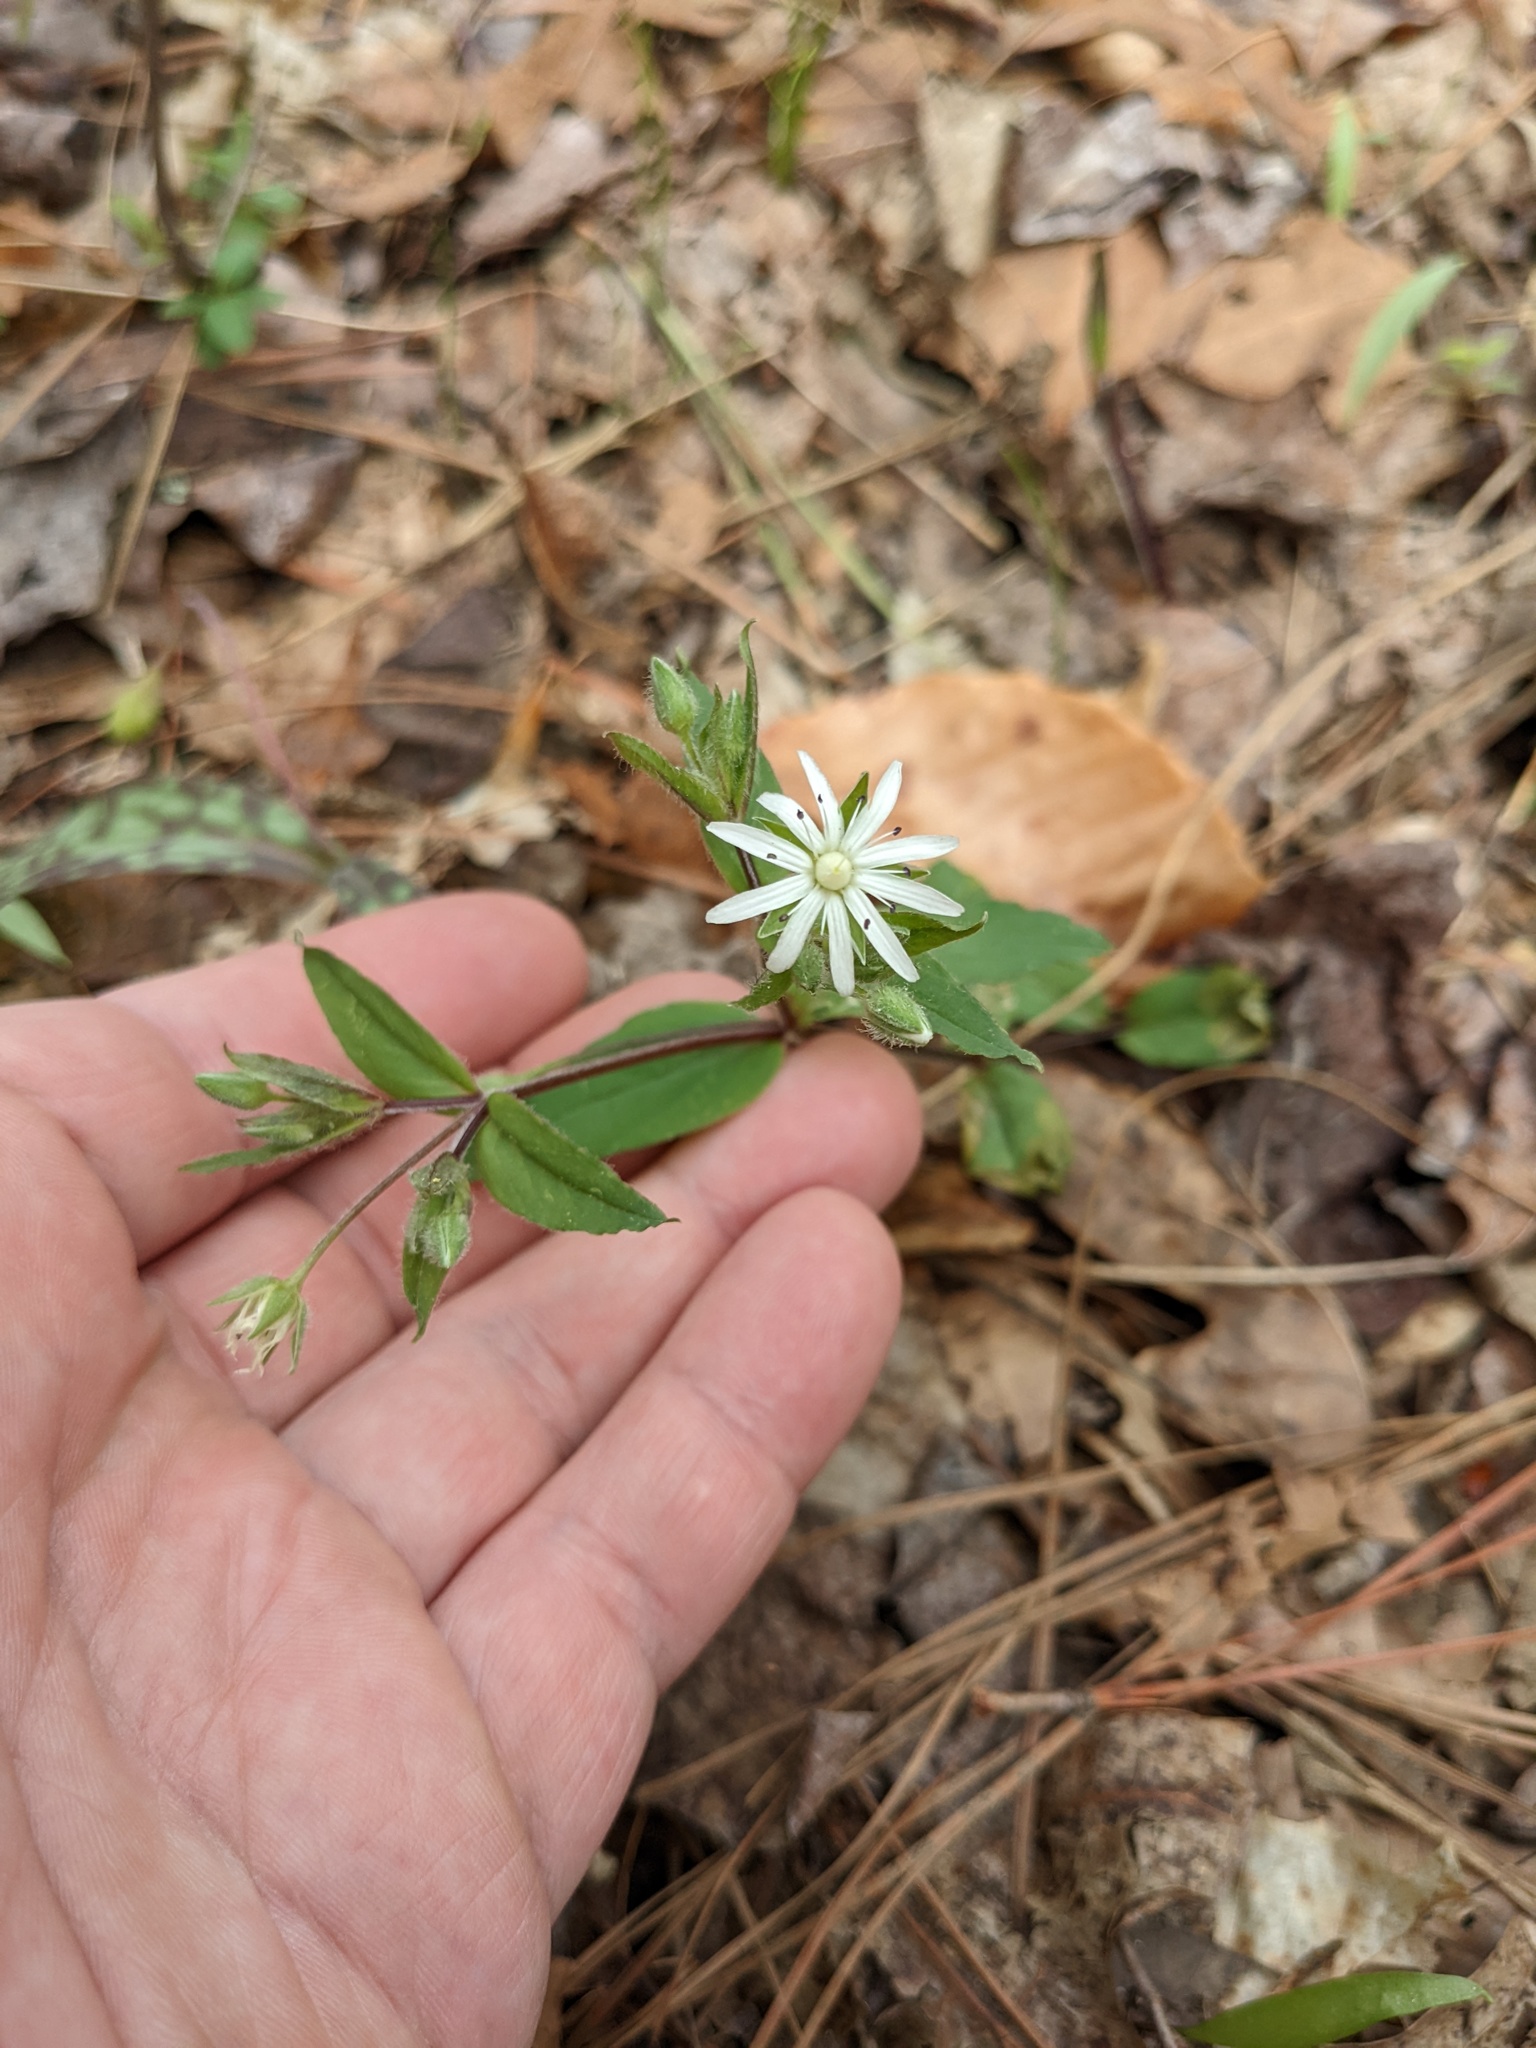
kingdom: Plantae
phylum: Tracheophyta
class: Magnoliopsida
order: Caryophyllales
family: Caryophyllaceae
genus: Stellaria
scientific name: Stellaria pubera
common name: Star chickweed
